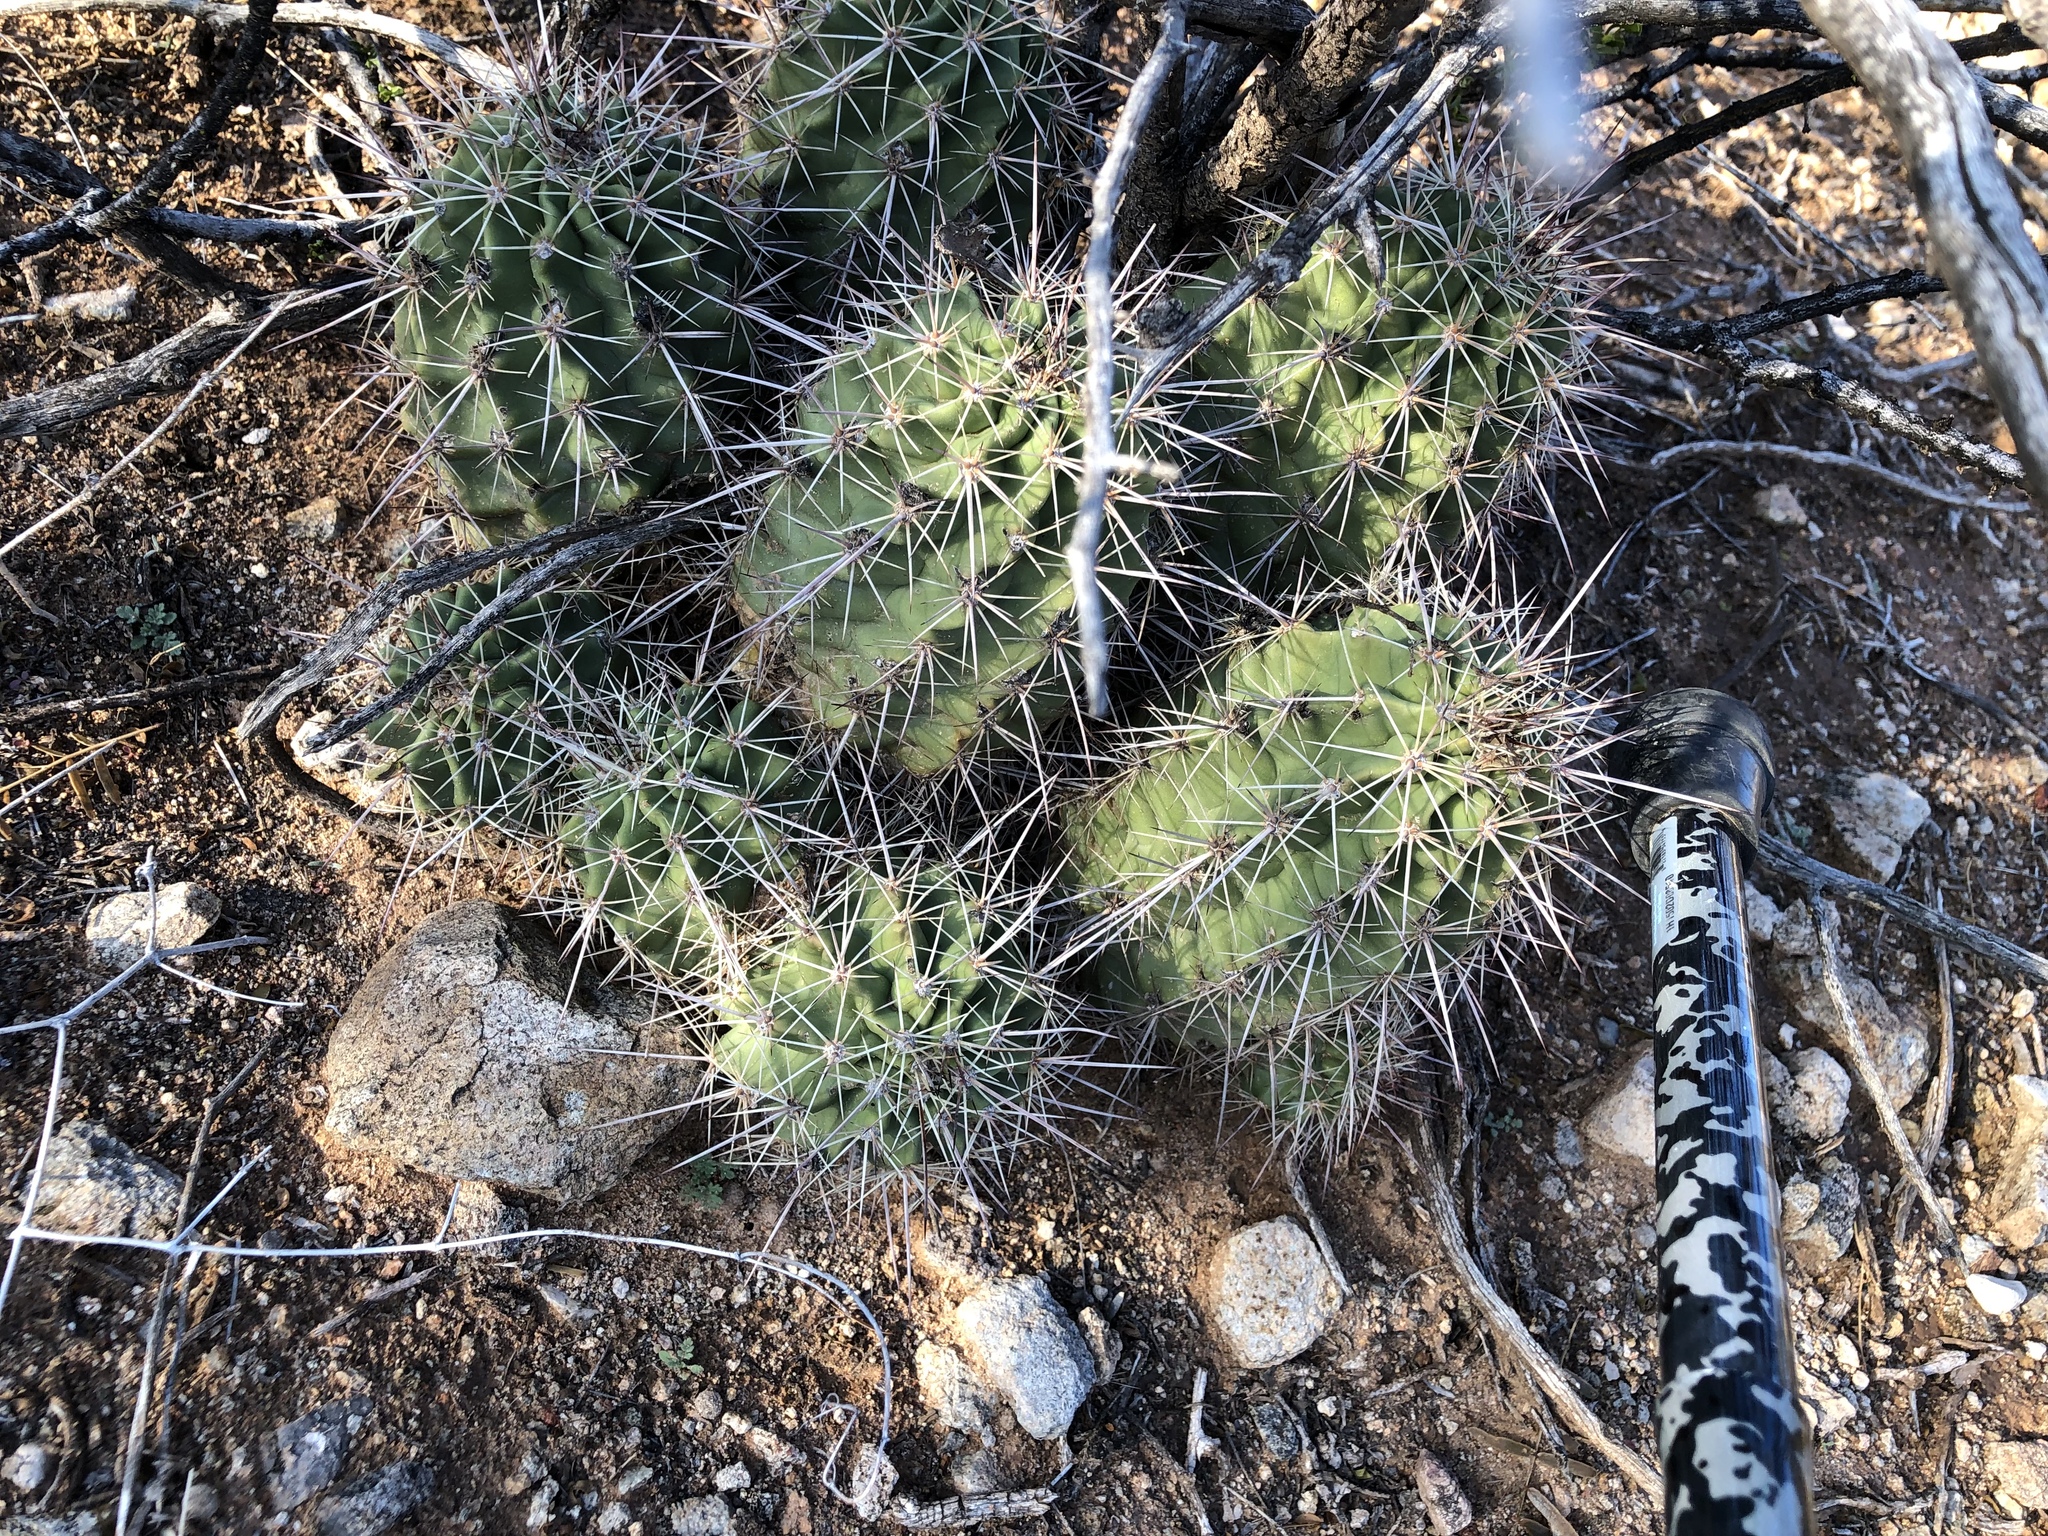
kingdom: Plantae
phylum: Tracheophyta
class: Magnoliopsida
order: Caryophyllales
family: Cactaceae
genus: Echinocereus
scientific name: Echinocereus coccineus
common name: Scarlet hedgehog cactus
